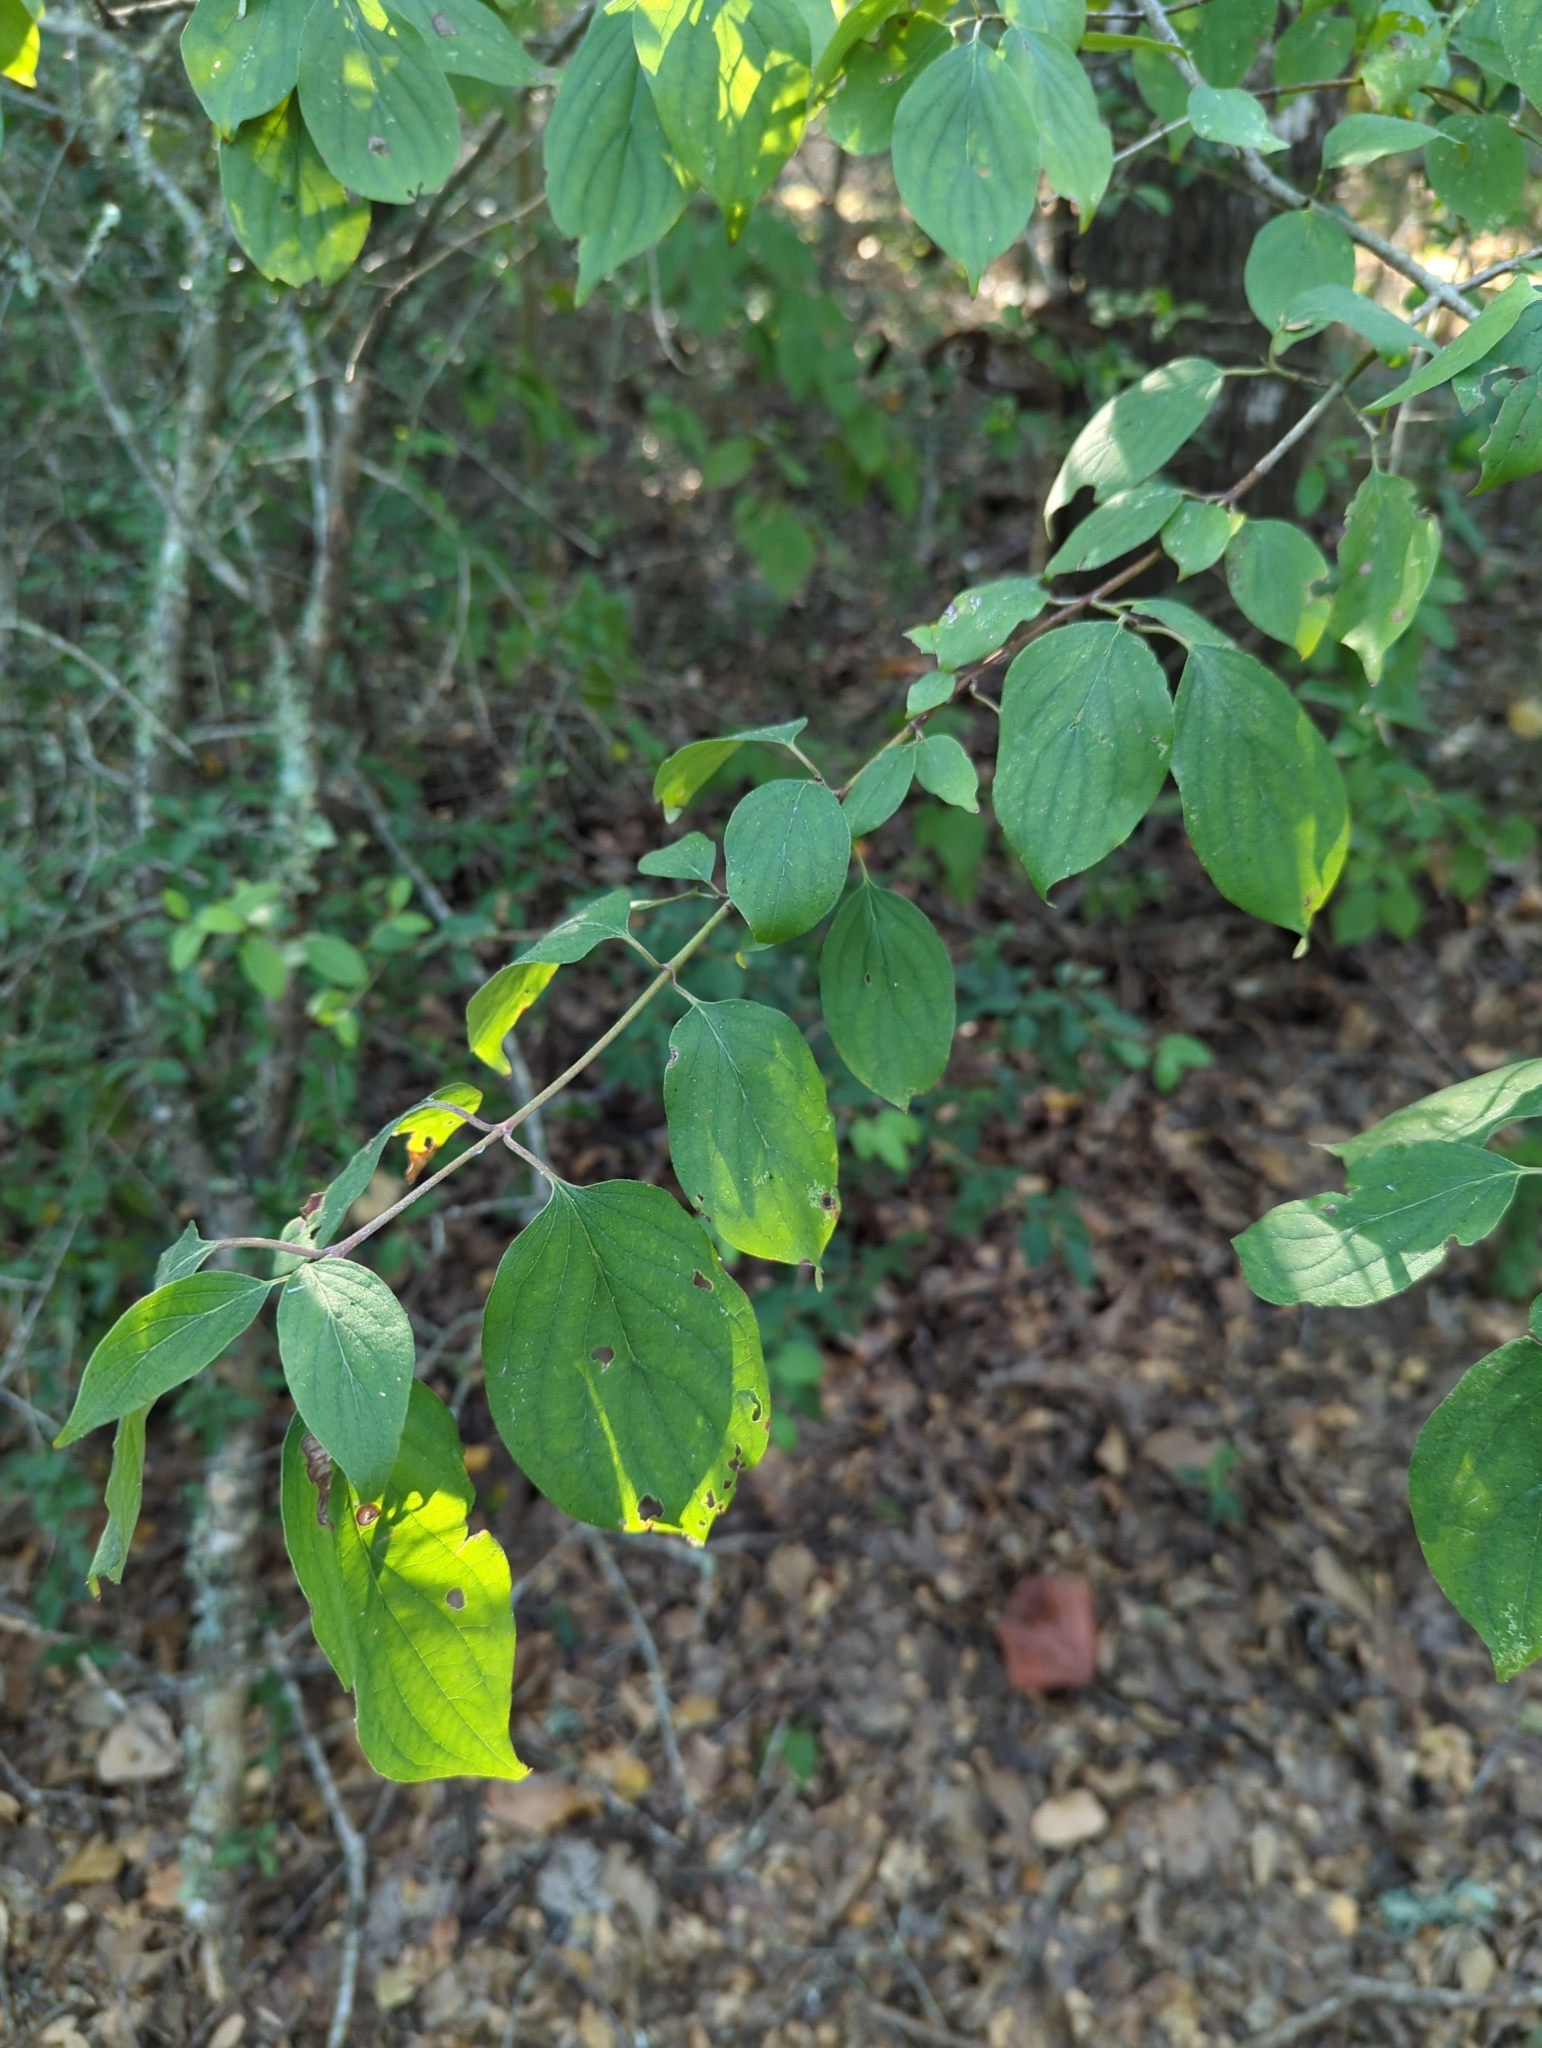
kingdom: Plantae
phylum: Tracheophyta
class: Magnoliopsida
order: Cornales
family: Cornaceae
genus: Cornus
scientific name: Cornus drummondii
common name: Rough-leaf dogwood
